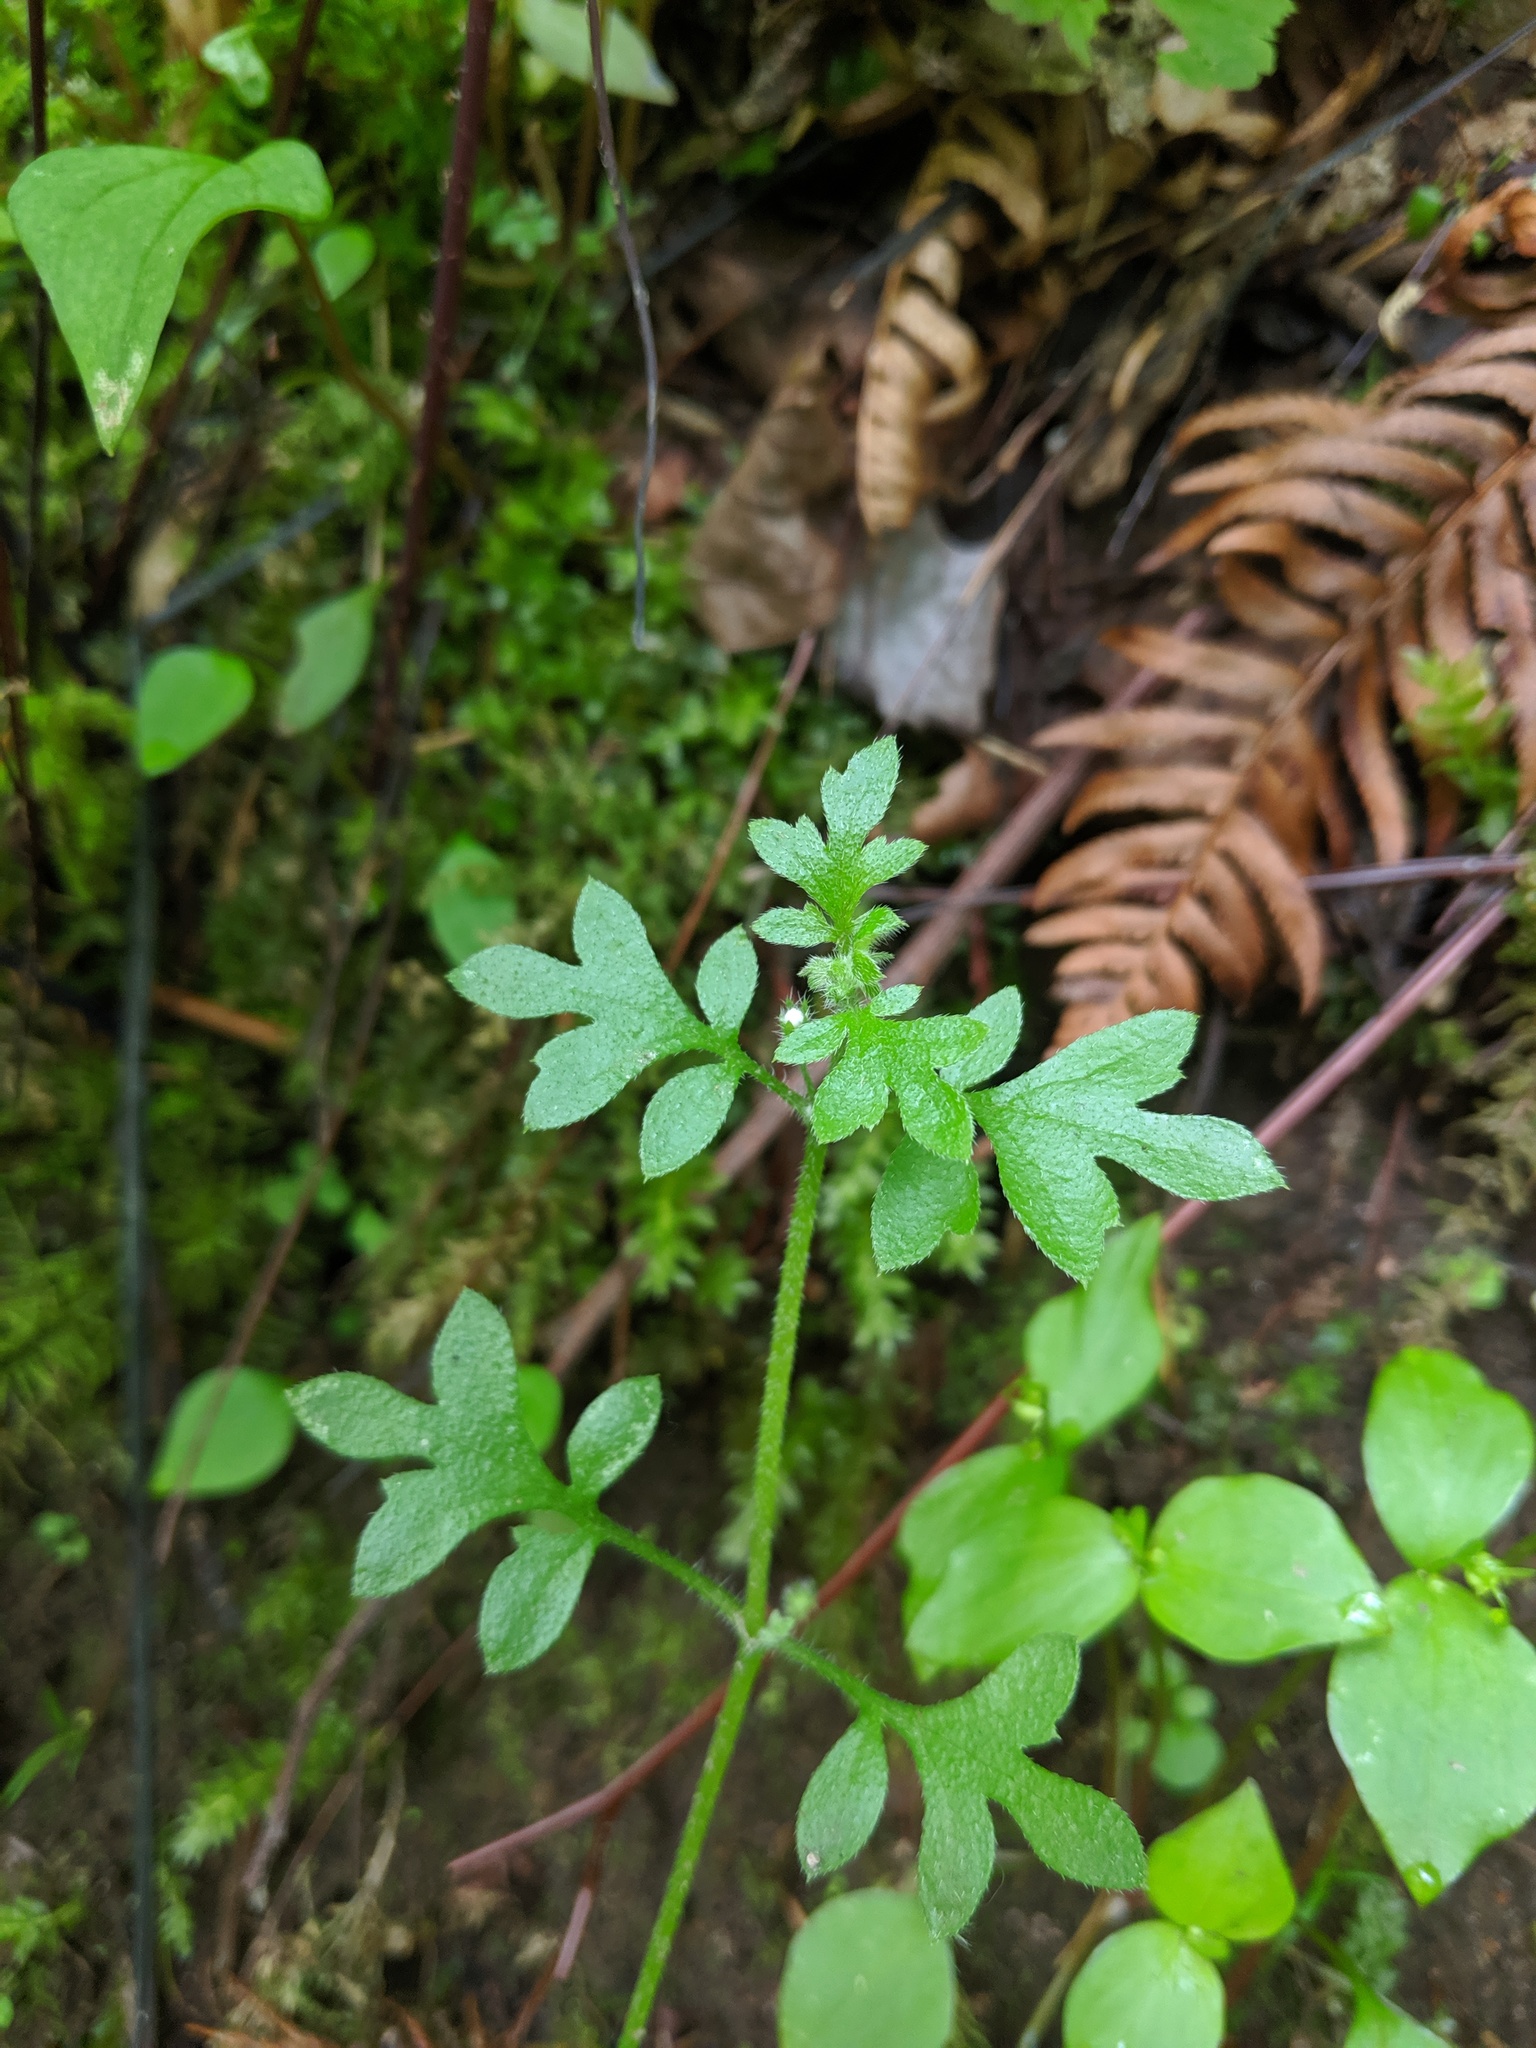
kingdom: Plantae
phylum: Tracheophyta
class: Magnoliopsida
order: Boraginales
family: Hydrophyllaceae
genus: Nemophila
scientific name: Nemophila parviflora
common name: Small-flowered baby-blue-eyes
